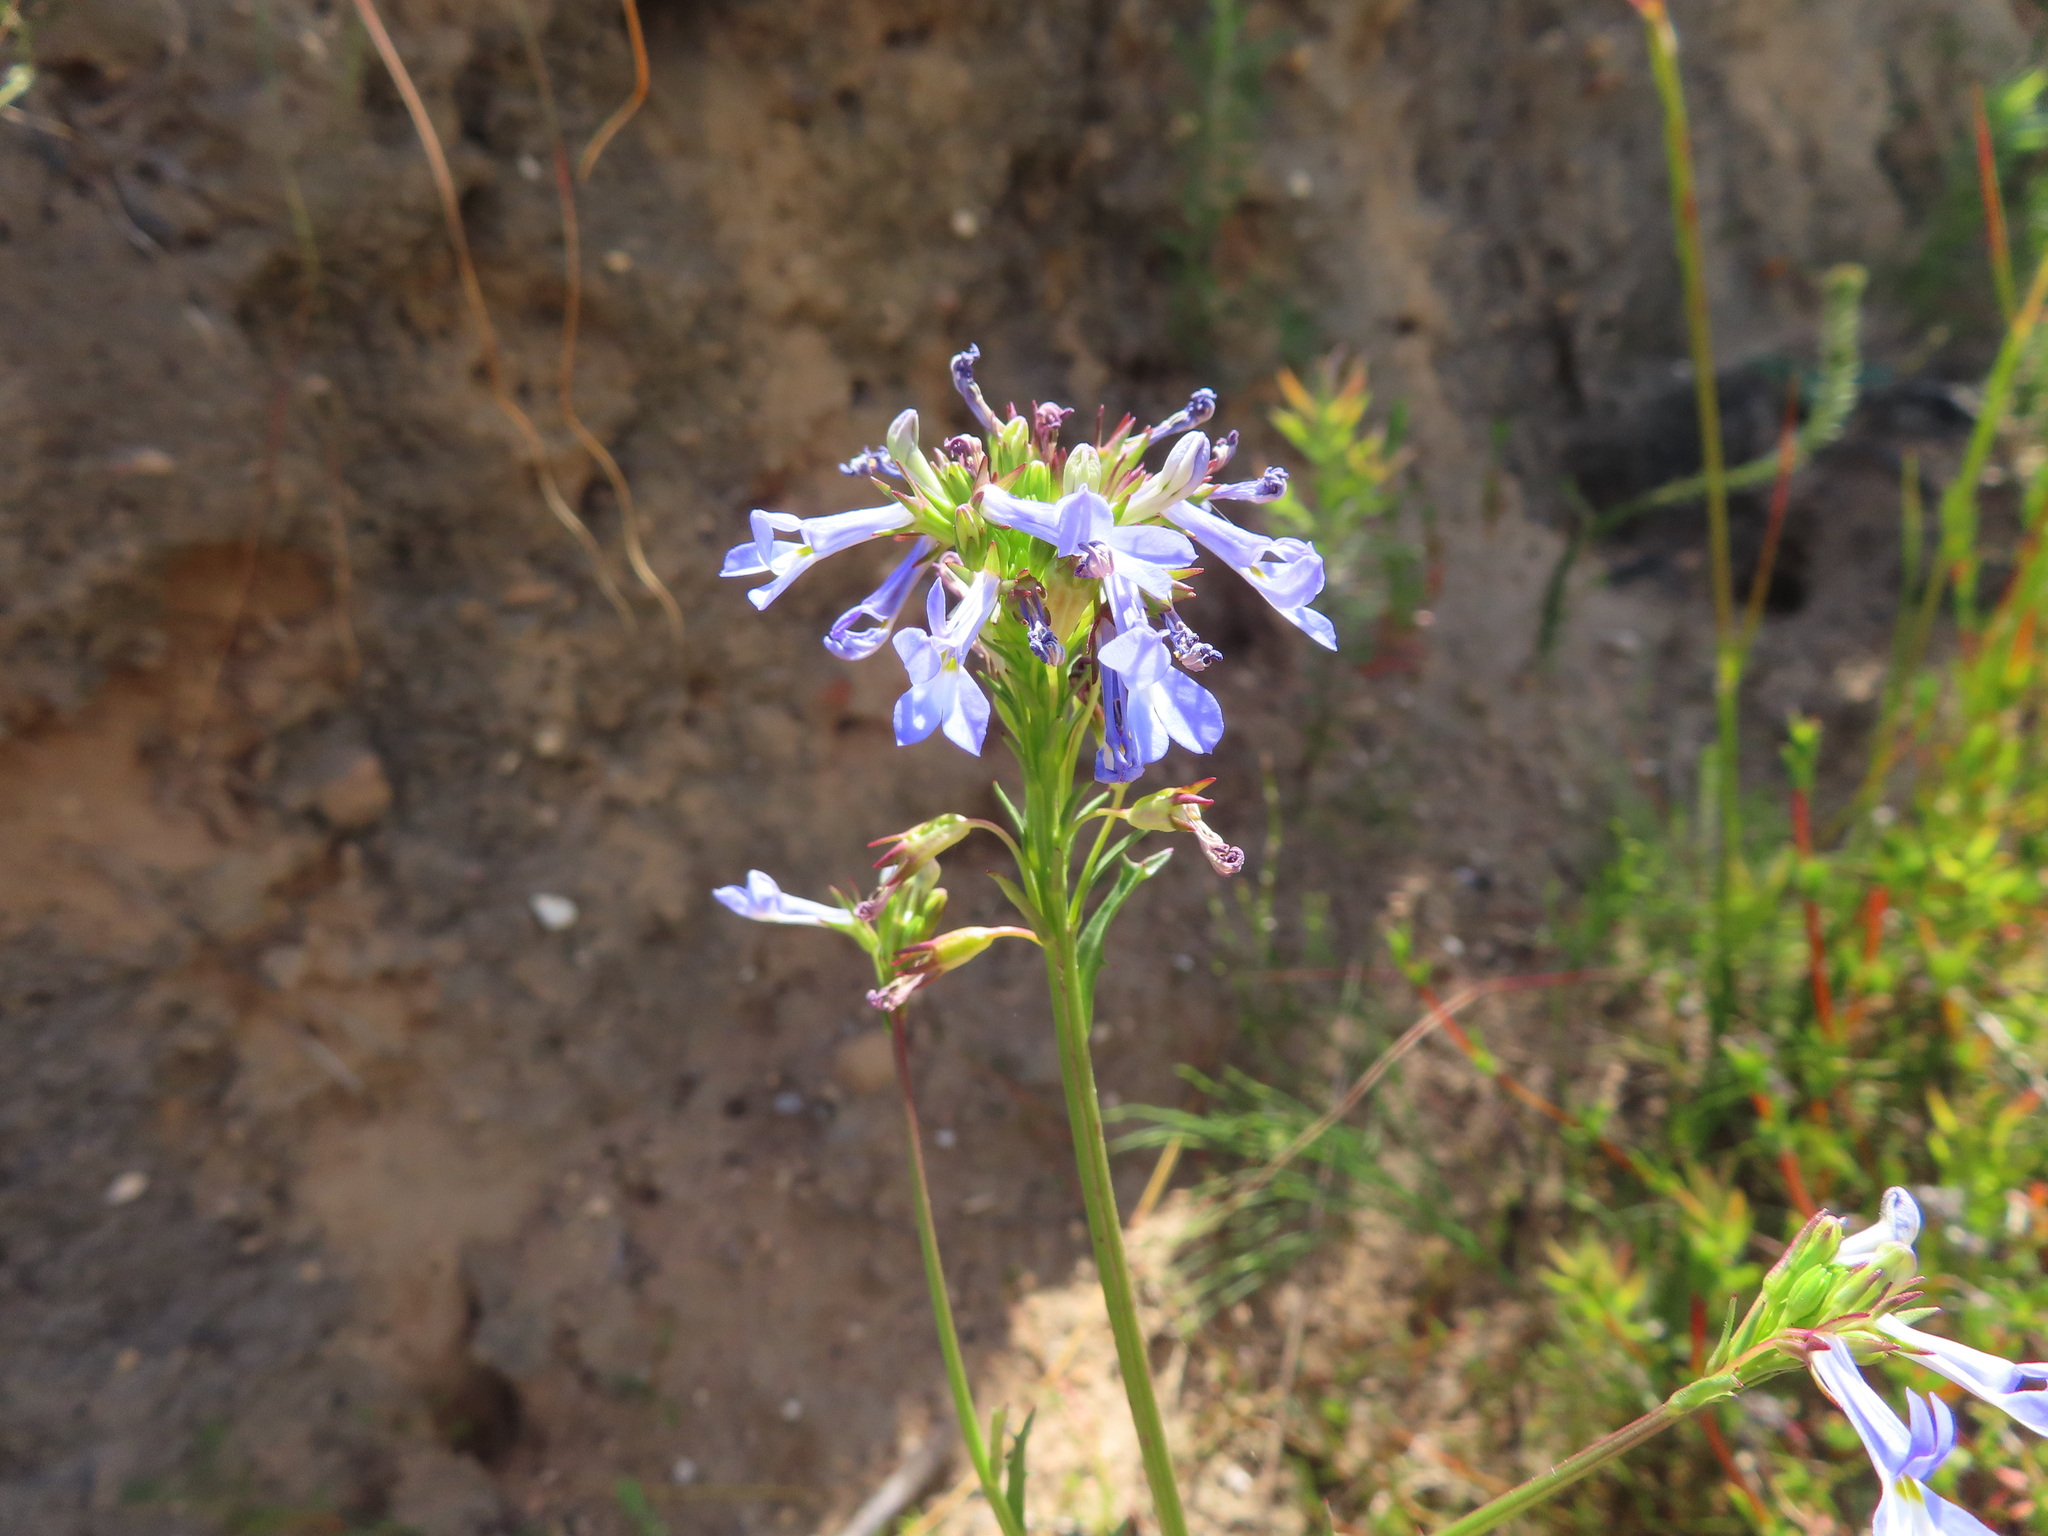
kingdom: Plantae
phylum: Tracheophyta
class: Magnoliopsida
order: Asterales
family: Campanulaceae
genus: Lobelia
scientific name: Lobelia comosa
